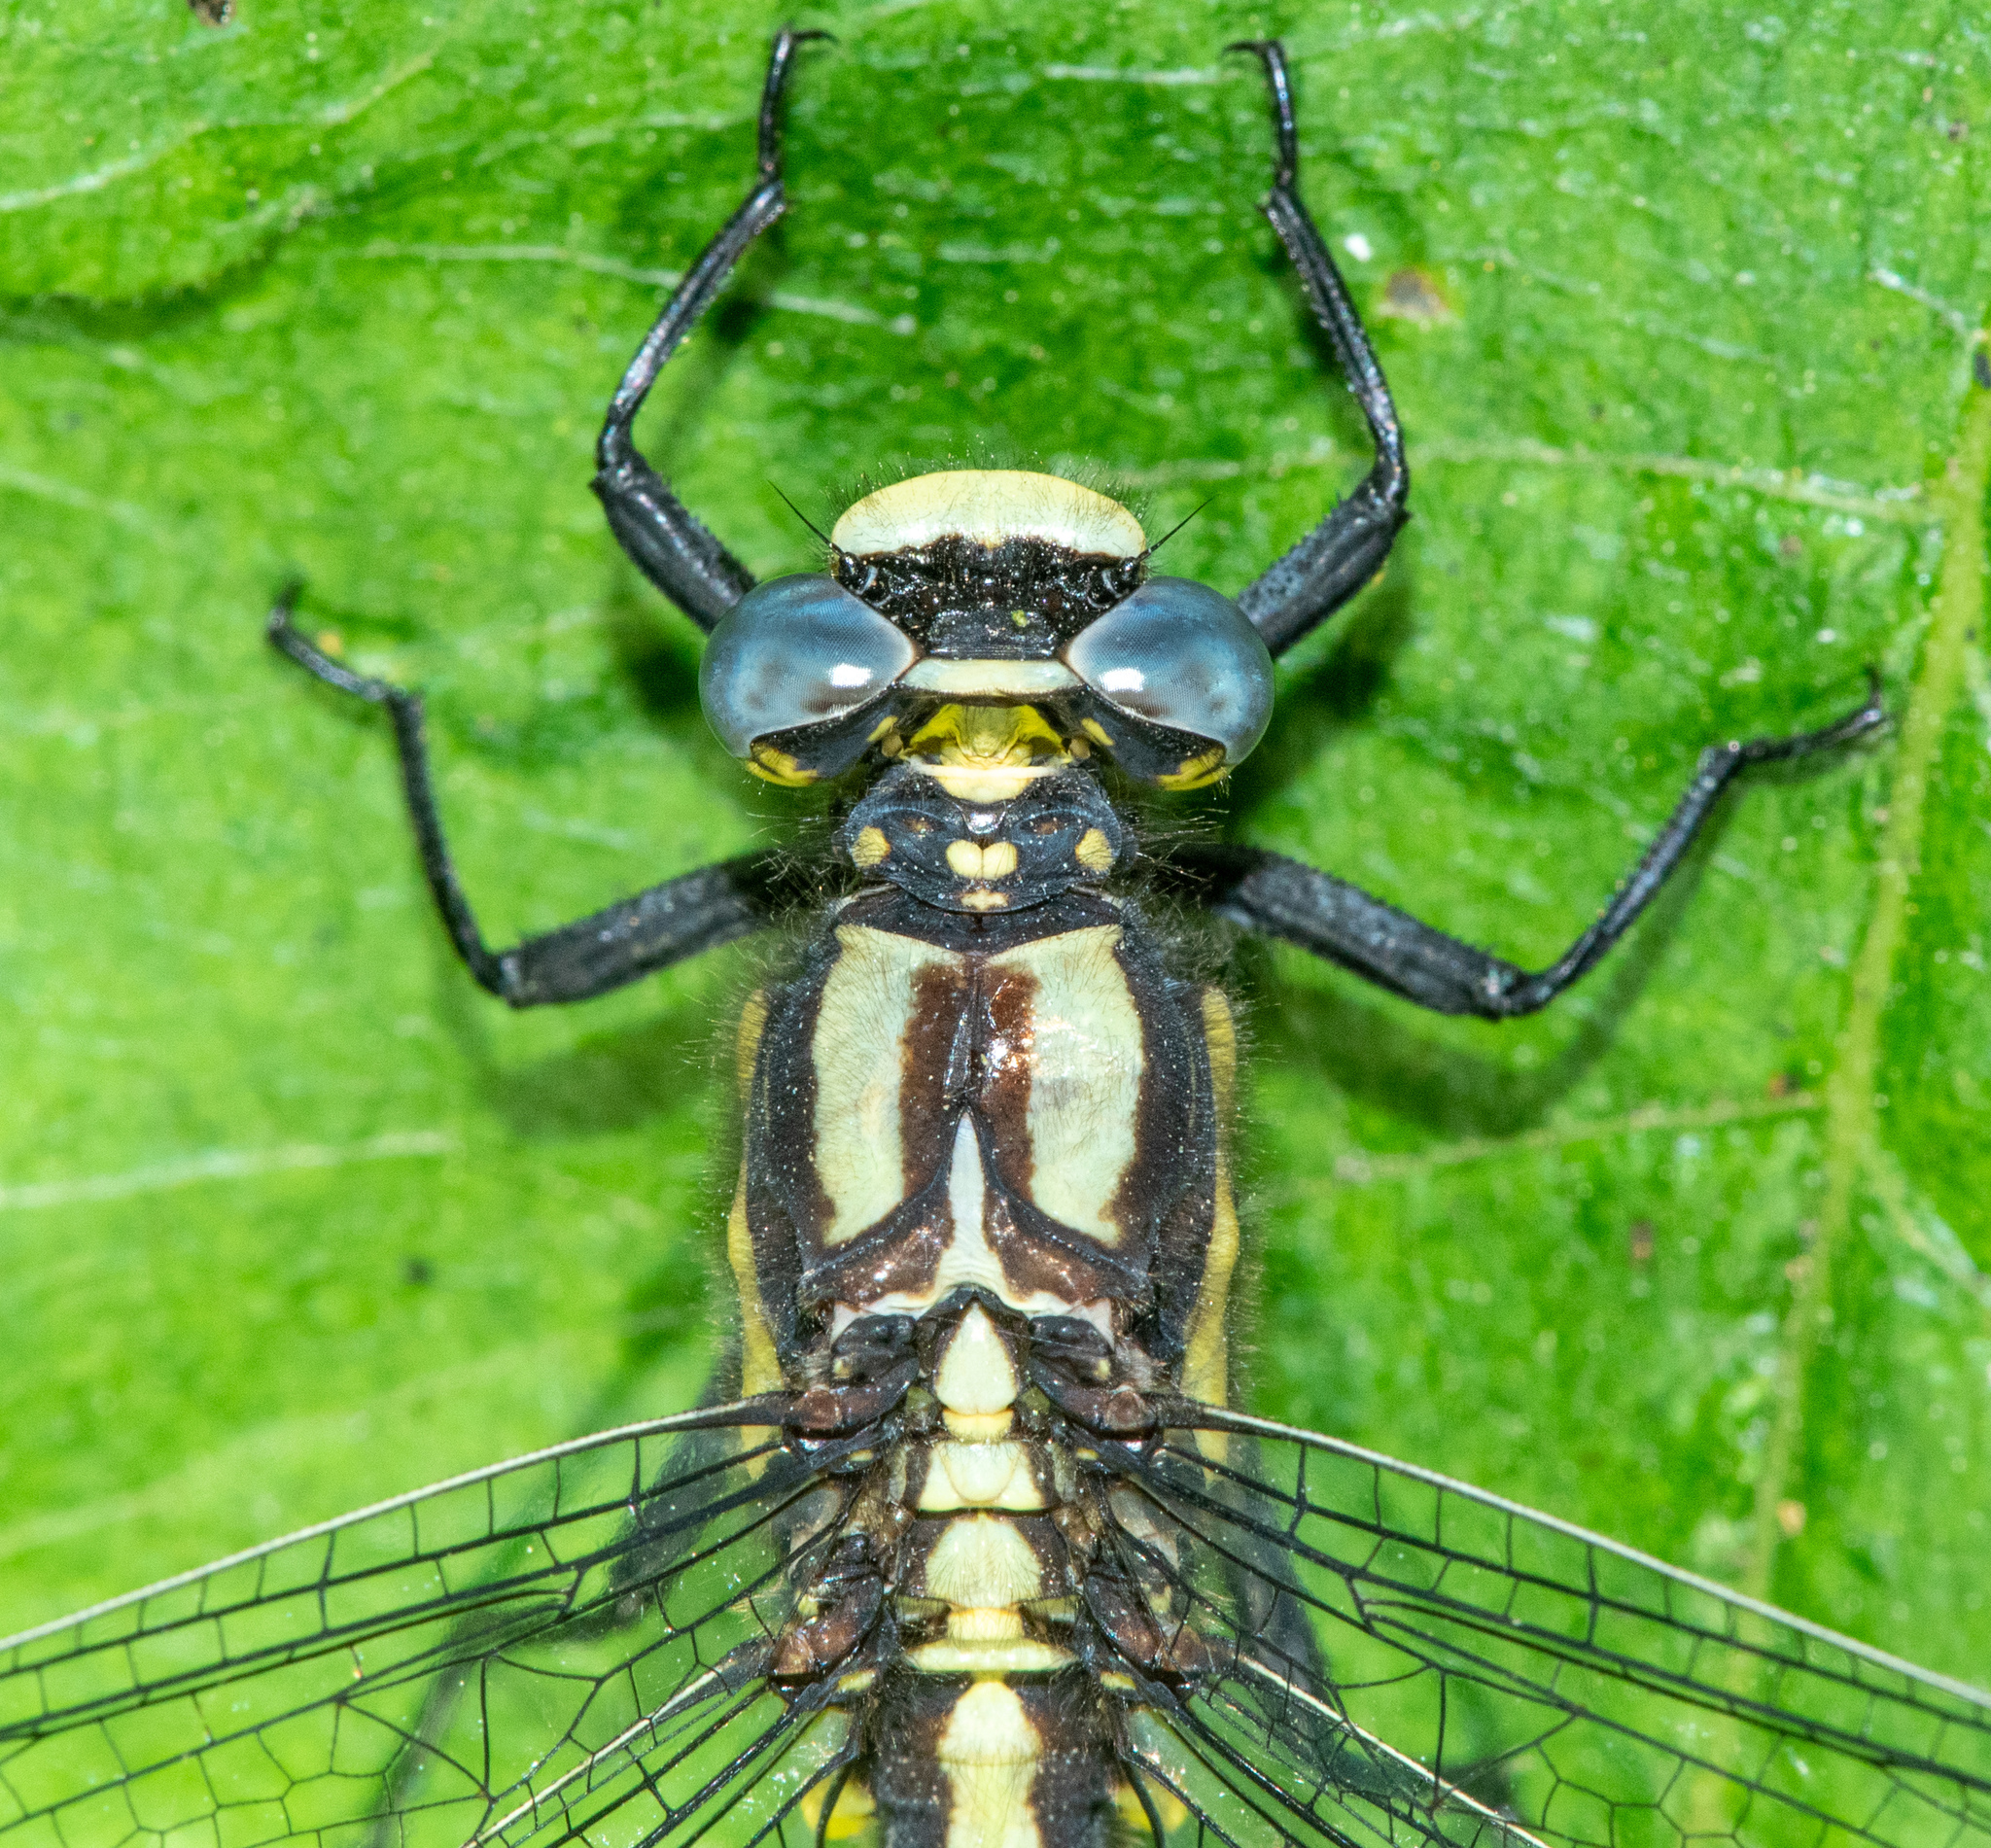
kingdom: Animalia
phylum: Arthropoda
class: Insecta
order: Odonata
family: Gomphidae
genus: Phanogomphus
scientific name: Phanogomphus kurilis
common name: Pacific clubtail
